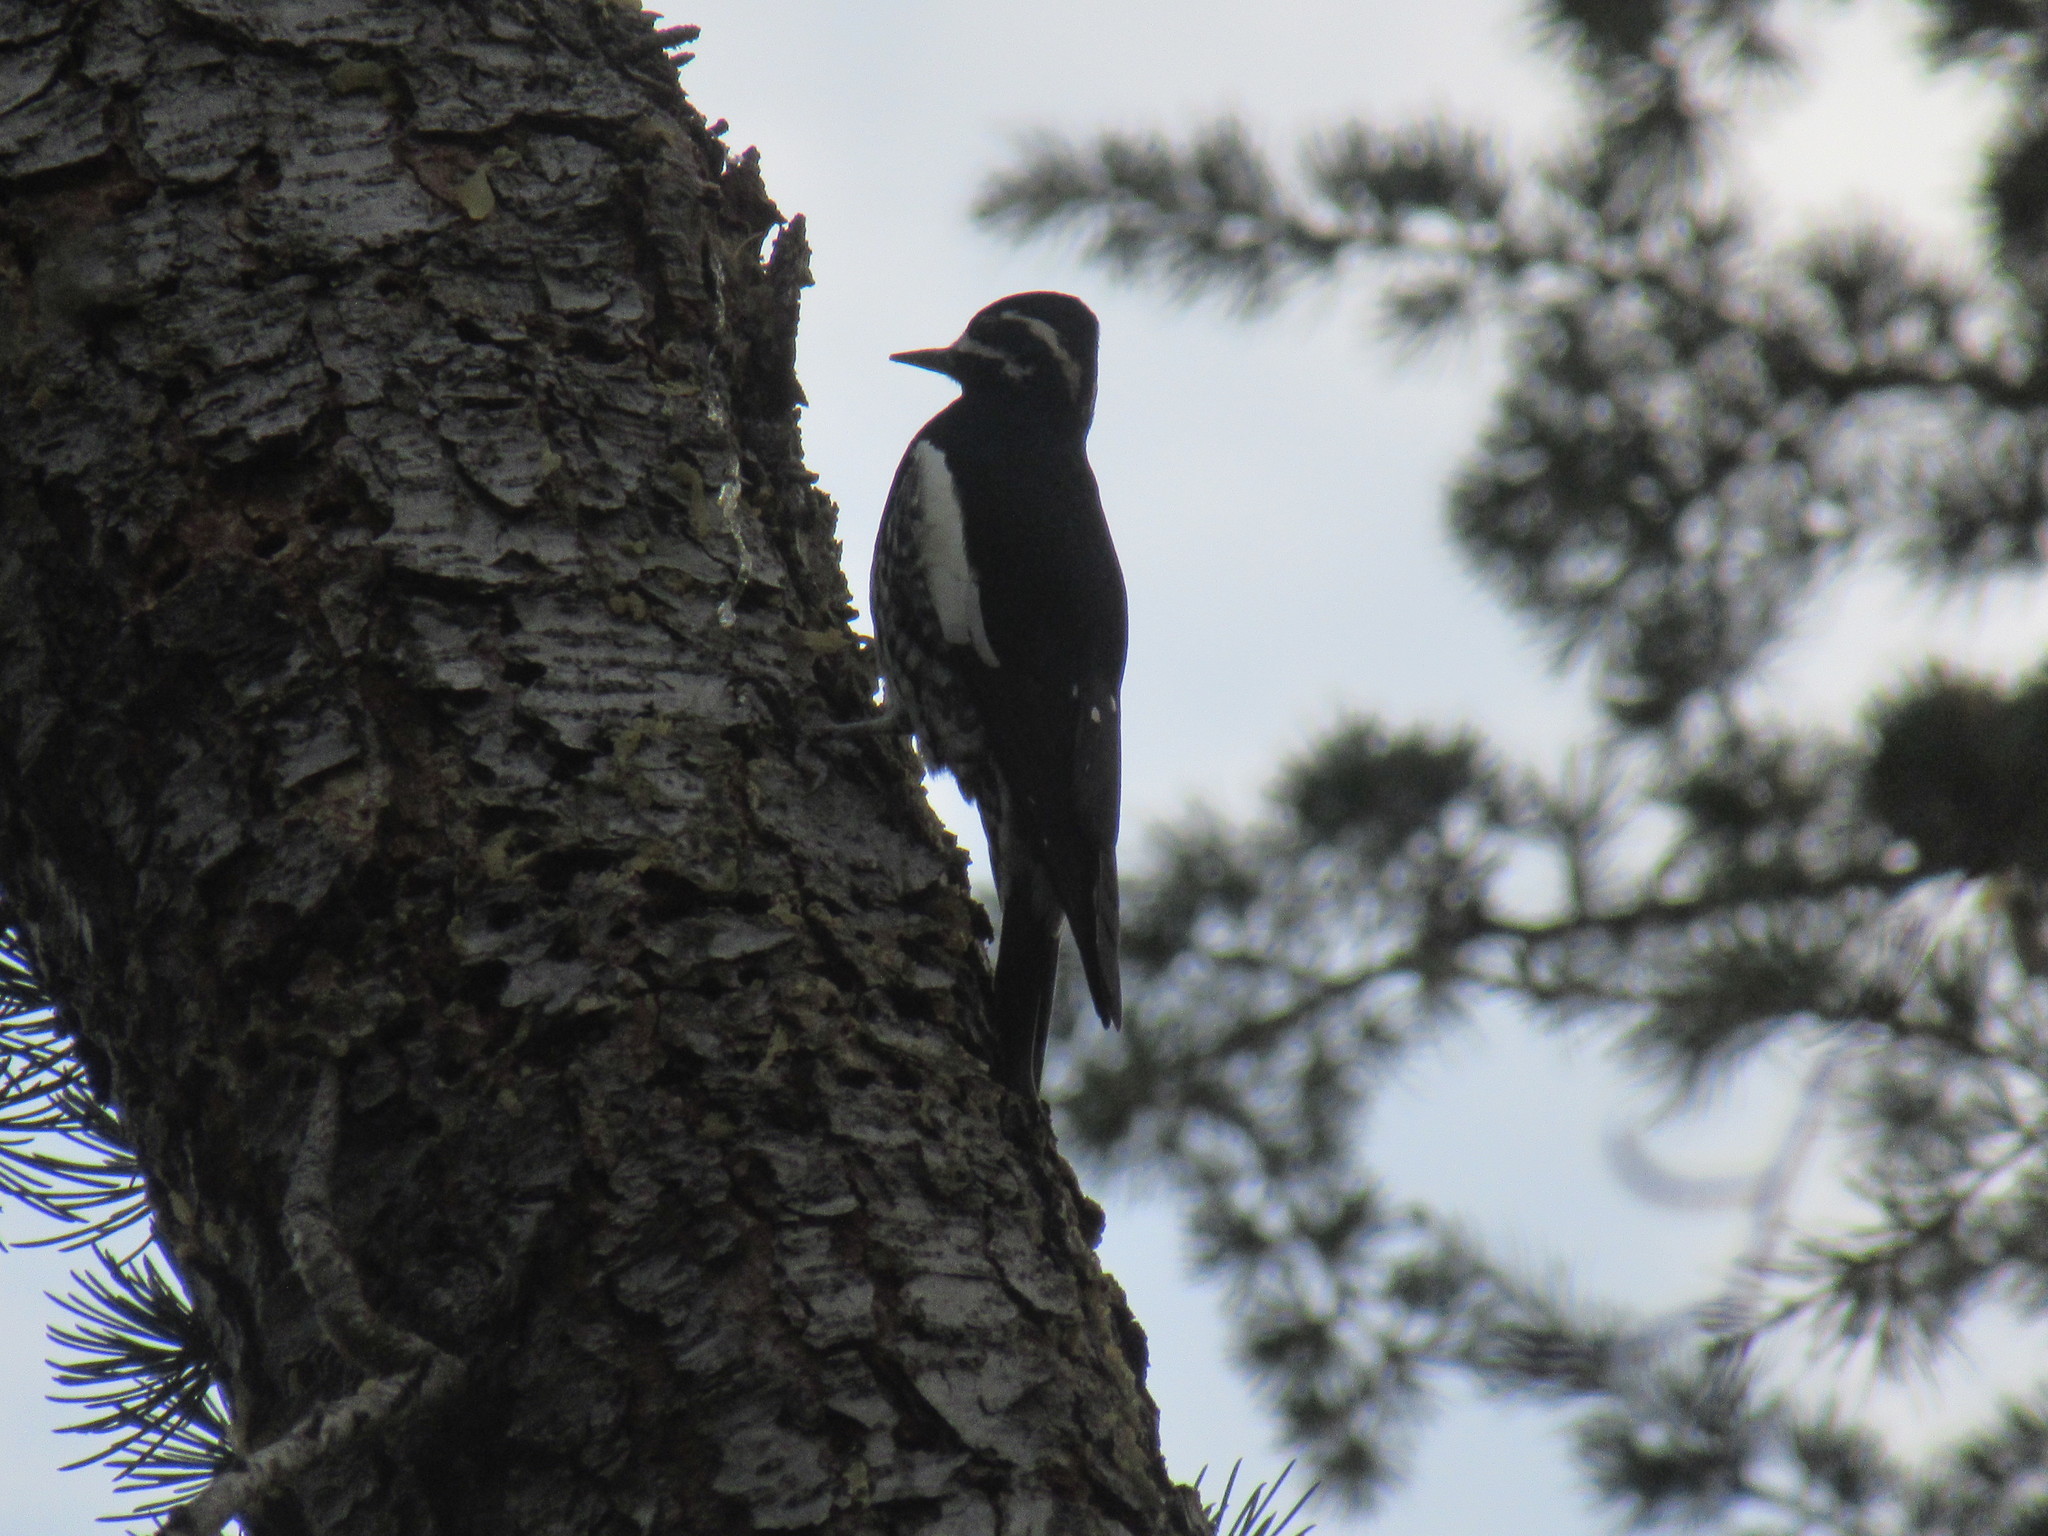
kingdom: Animalia
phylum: Chordata
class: Aves
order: Piciformes
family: Picidae
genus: Sphyrapicus
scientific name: Sphyrapicus thyroideus
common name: Williamson's sapsucker
